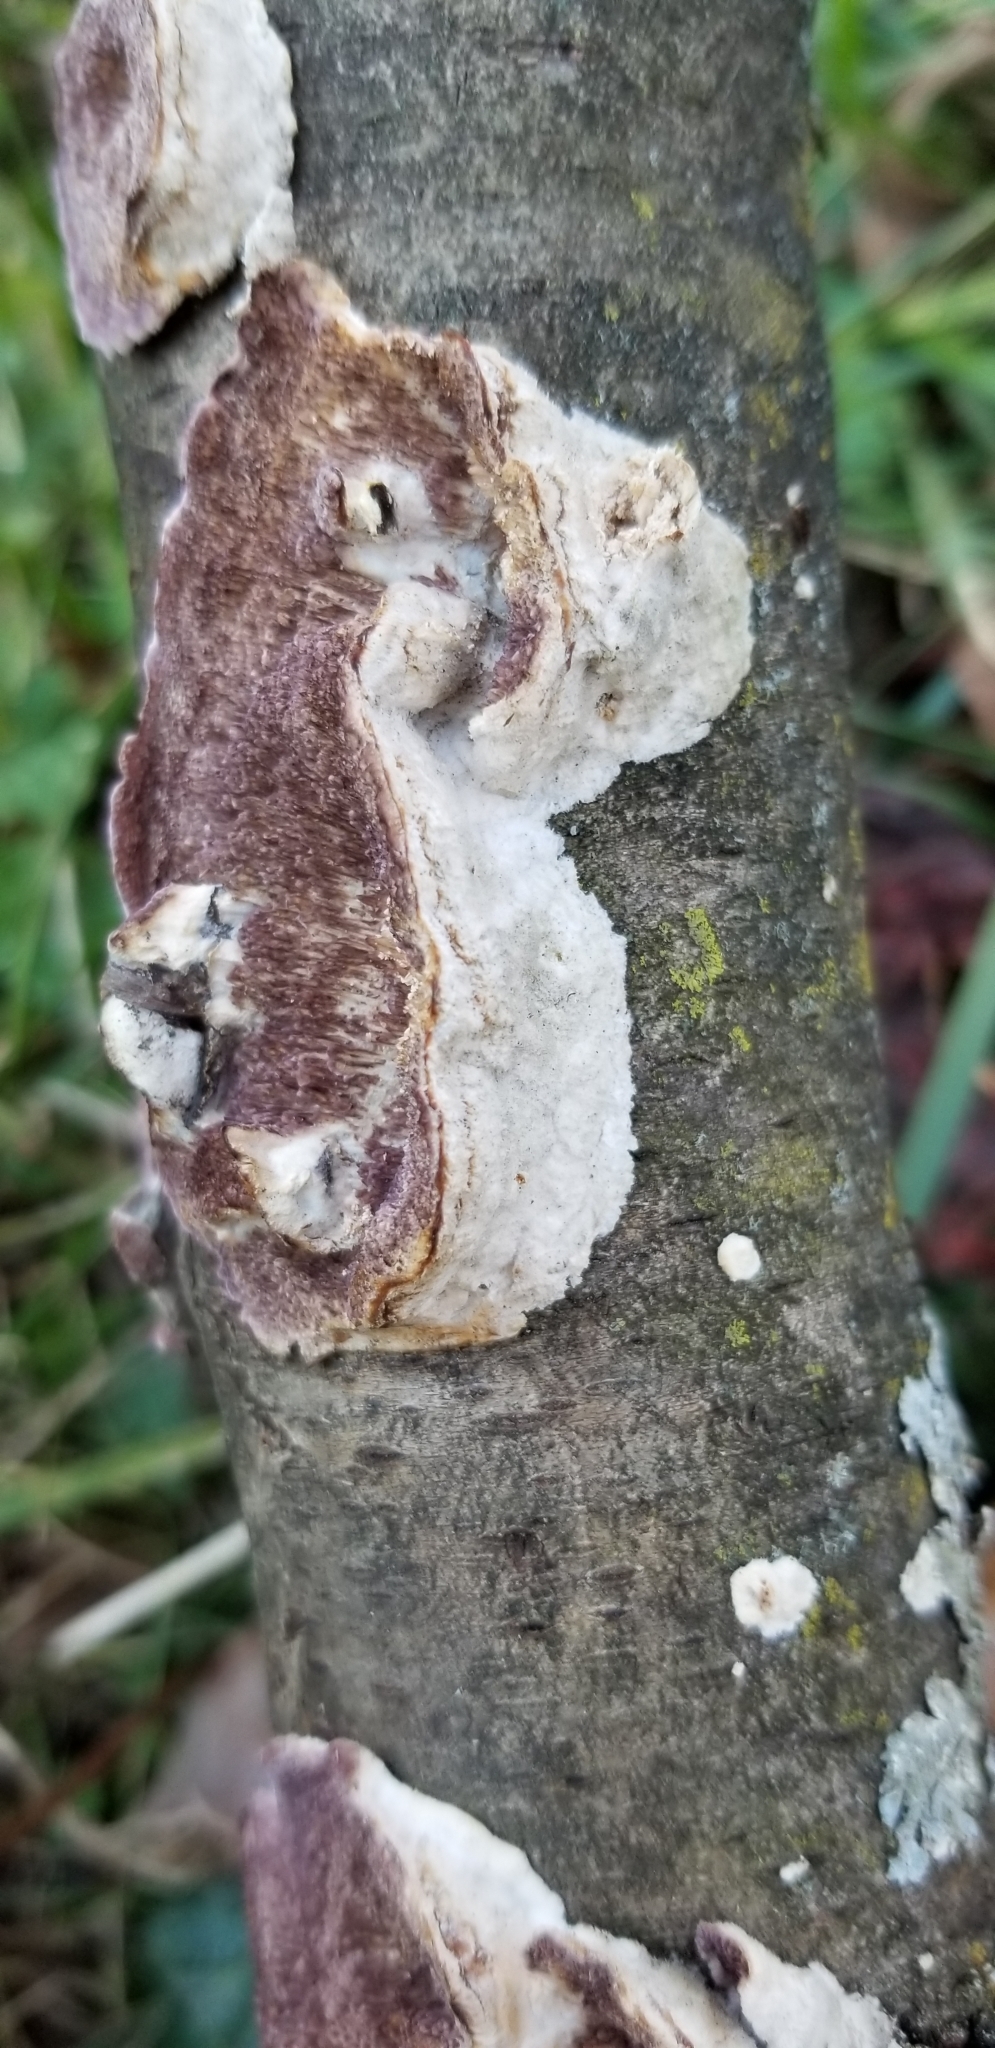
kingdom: Fungi
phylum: Basidiomycota
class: Agaricomycetes
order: Hymenochaetales
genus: Trichaptum
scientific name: Trichaptum biforme
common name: Violet-toothed polypore
